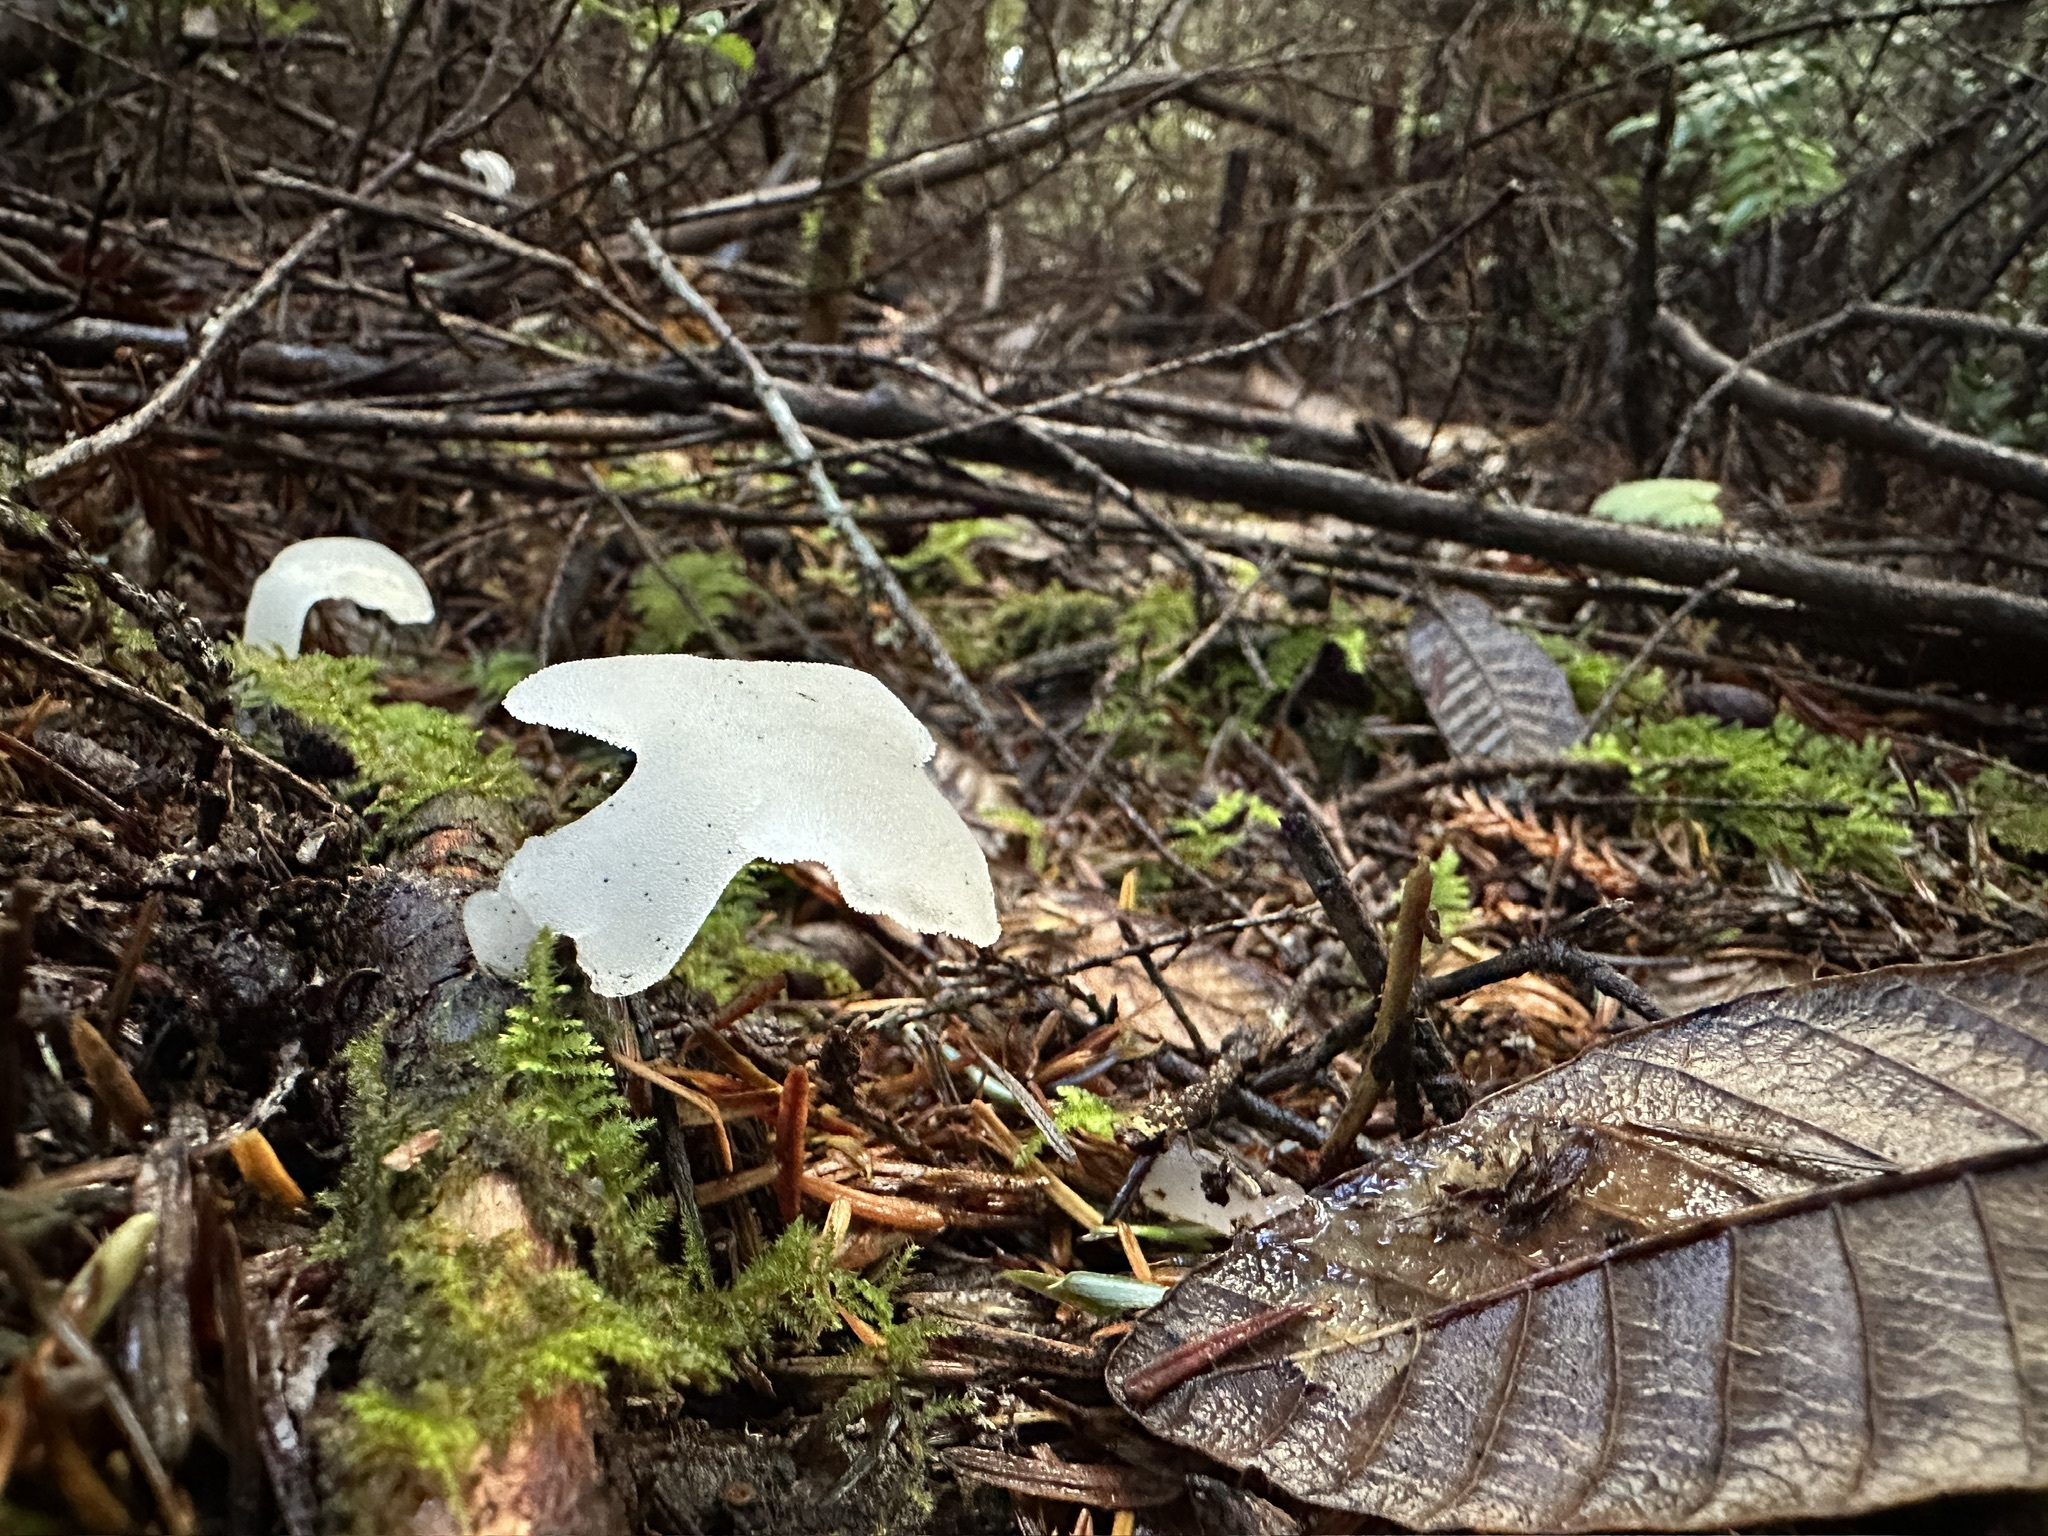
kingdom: Fungi
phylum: Basidiomycota
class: Agaricomycetes
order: Auriculariales
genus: Pseudohydnum
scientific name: Pseudohydnum gelatinosum
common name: Jelly tongue
